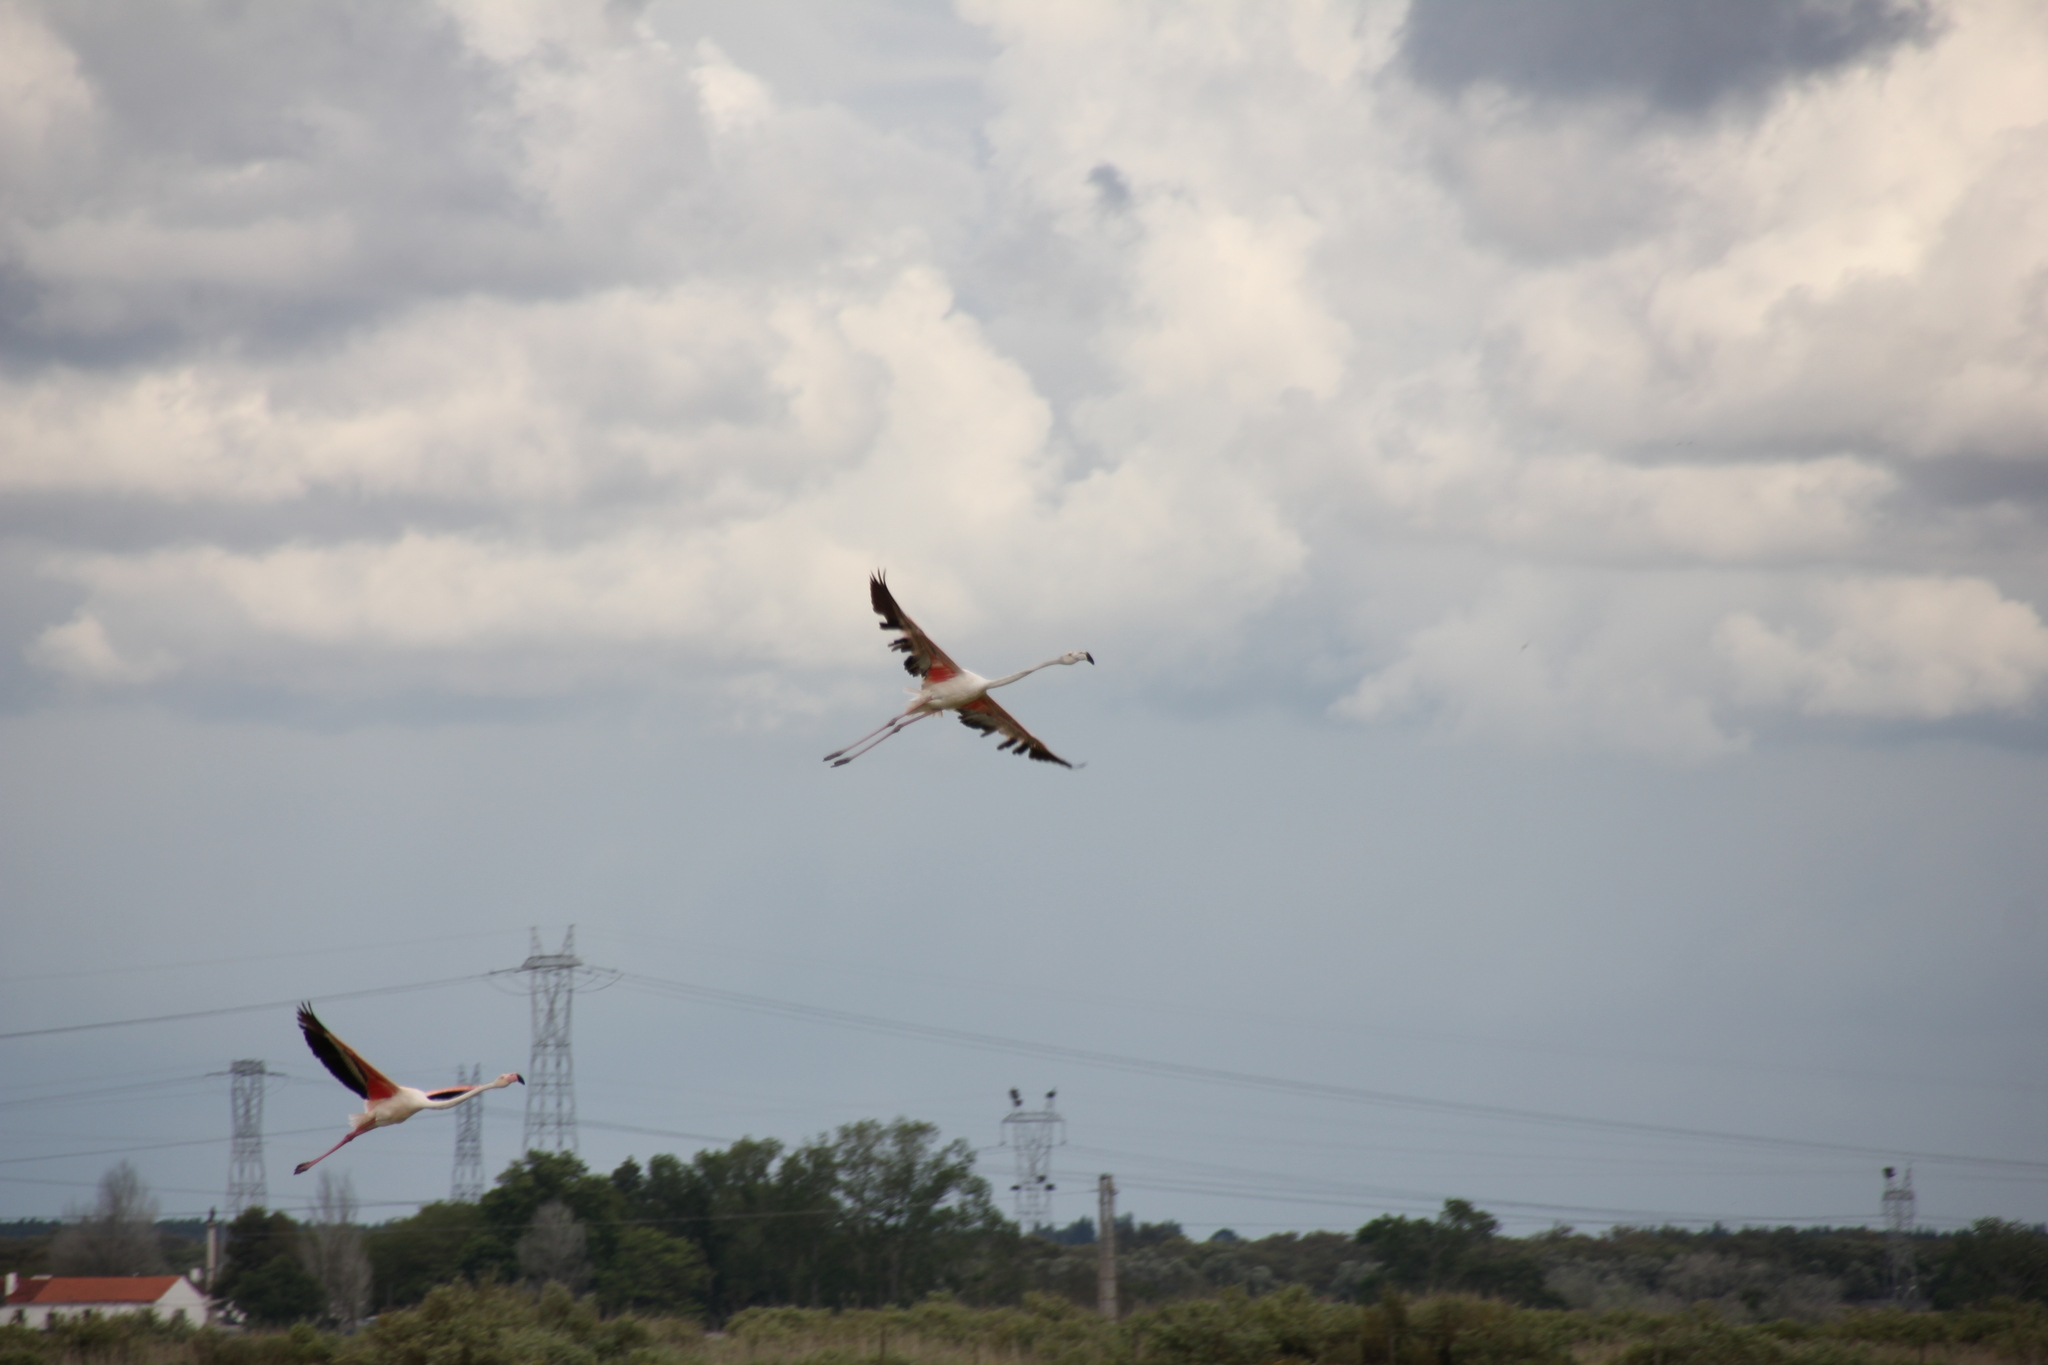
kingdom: Animalia
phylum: Chordata
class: Aves
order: Phoenicopteriformes
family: Phoenicopteridae
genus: Phoenicopterus
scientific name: Phoenicopterus roseus
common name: Greater flamingo
